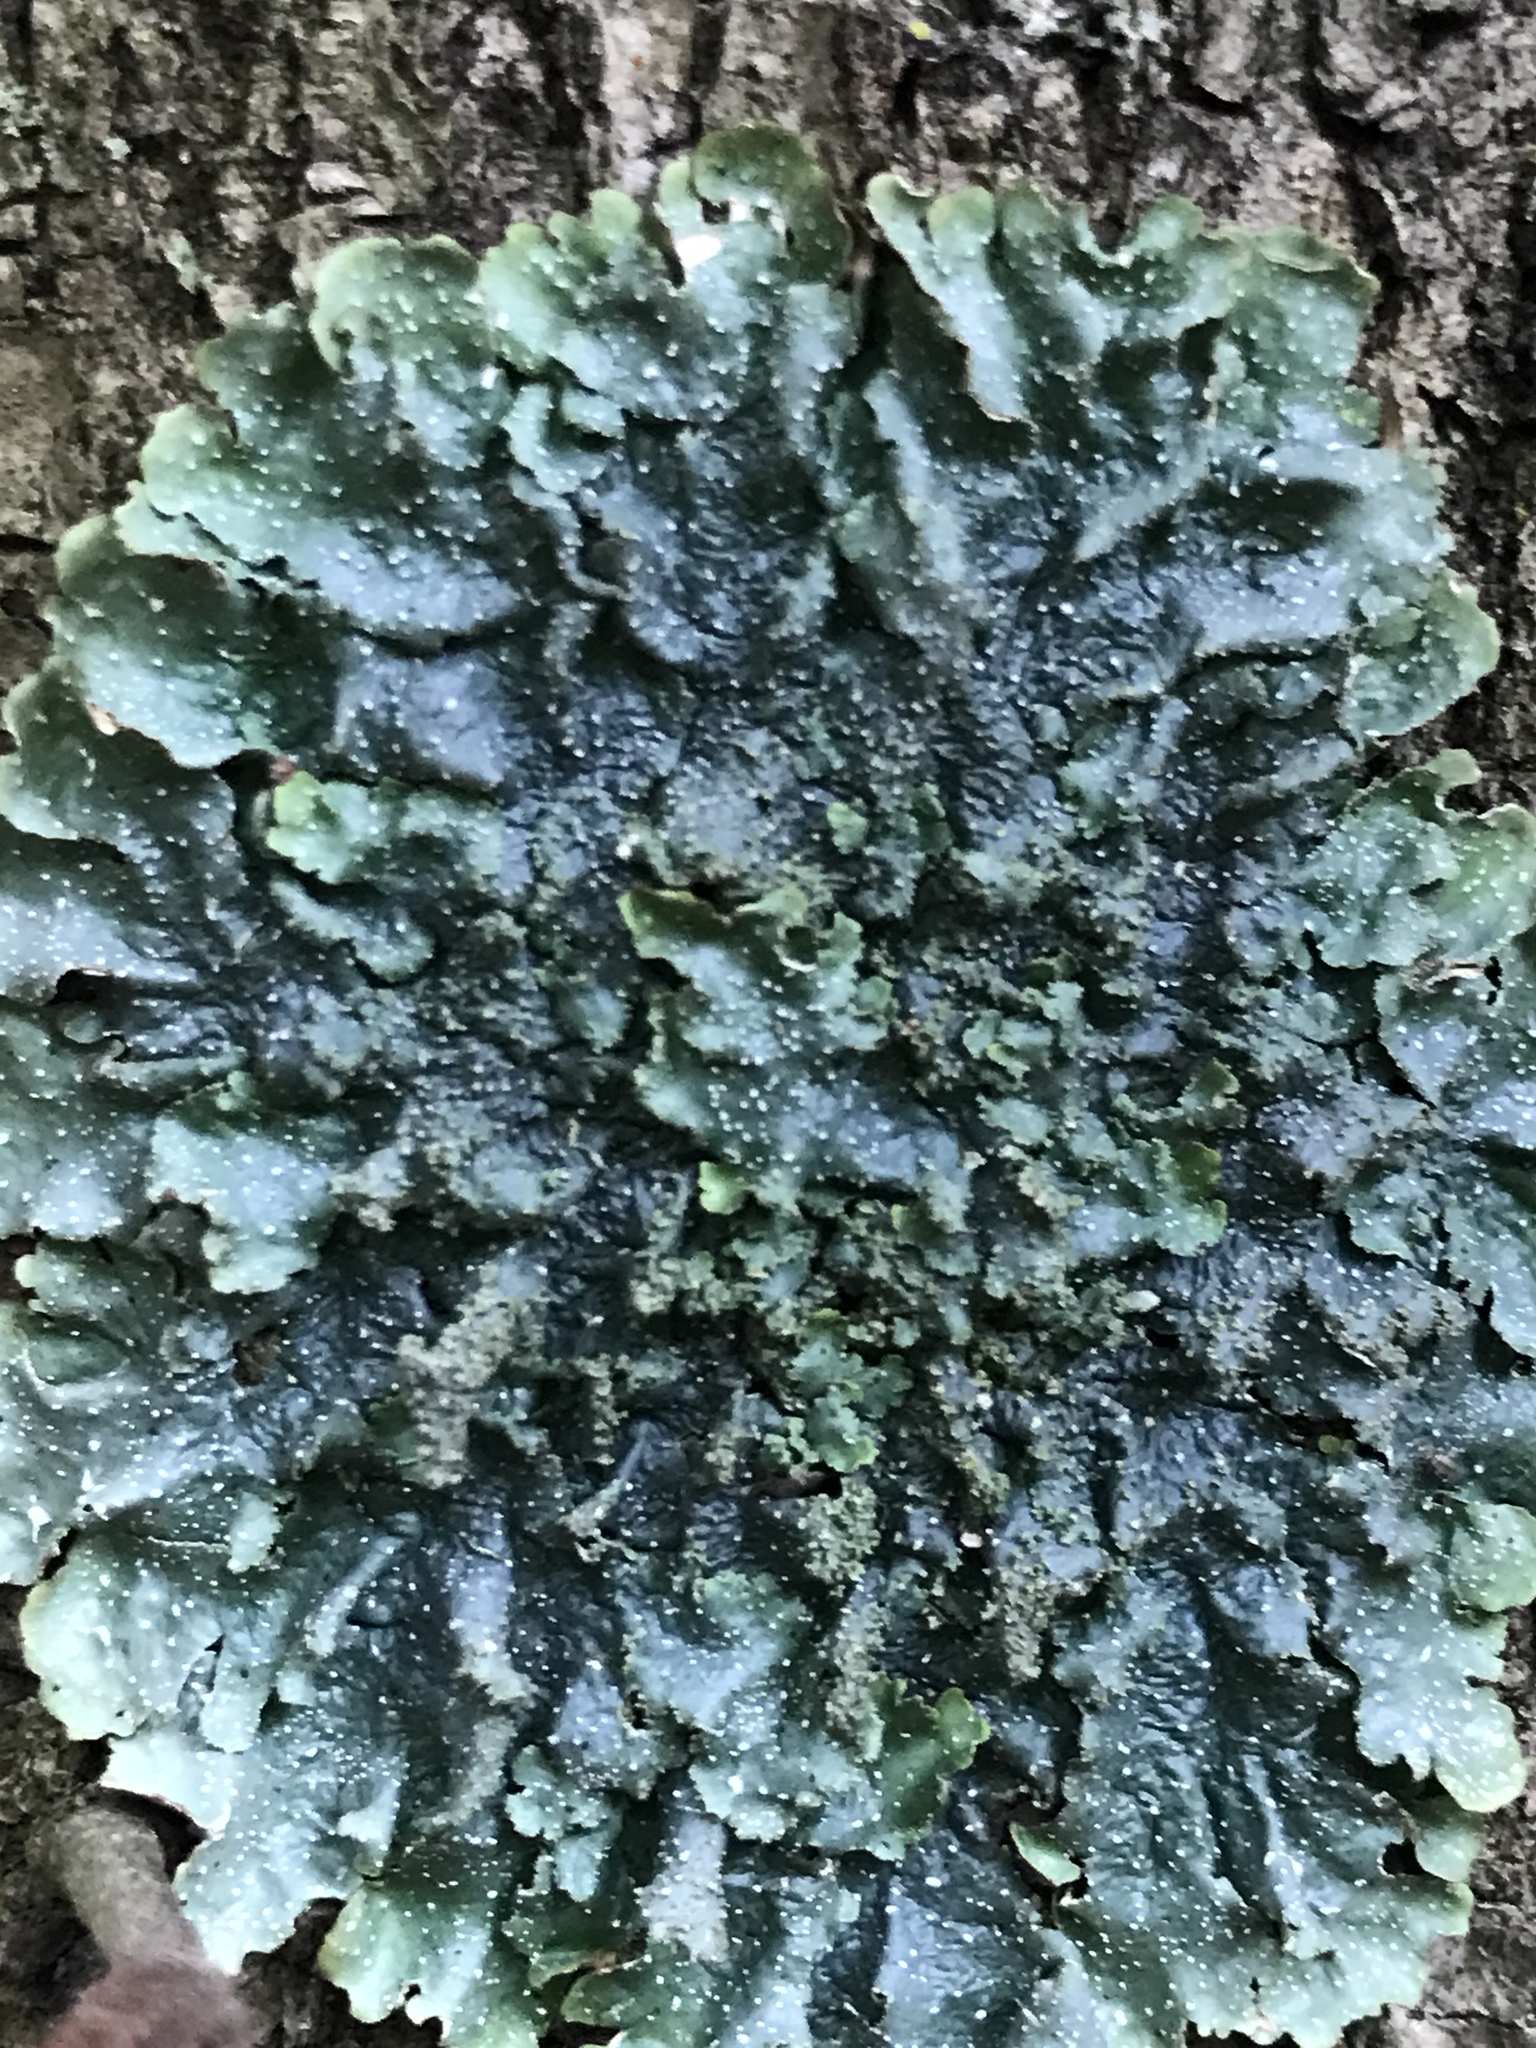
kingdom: Fungi
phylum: Ascomycota
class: Lecanoromycetes
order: Lecanorales
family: Parmeliaceae
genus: Punctelia
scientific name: Punctelia rudecta
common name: Rough speckled shield lichen
